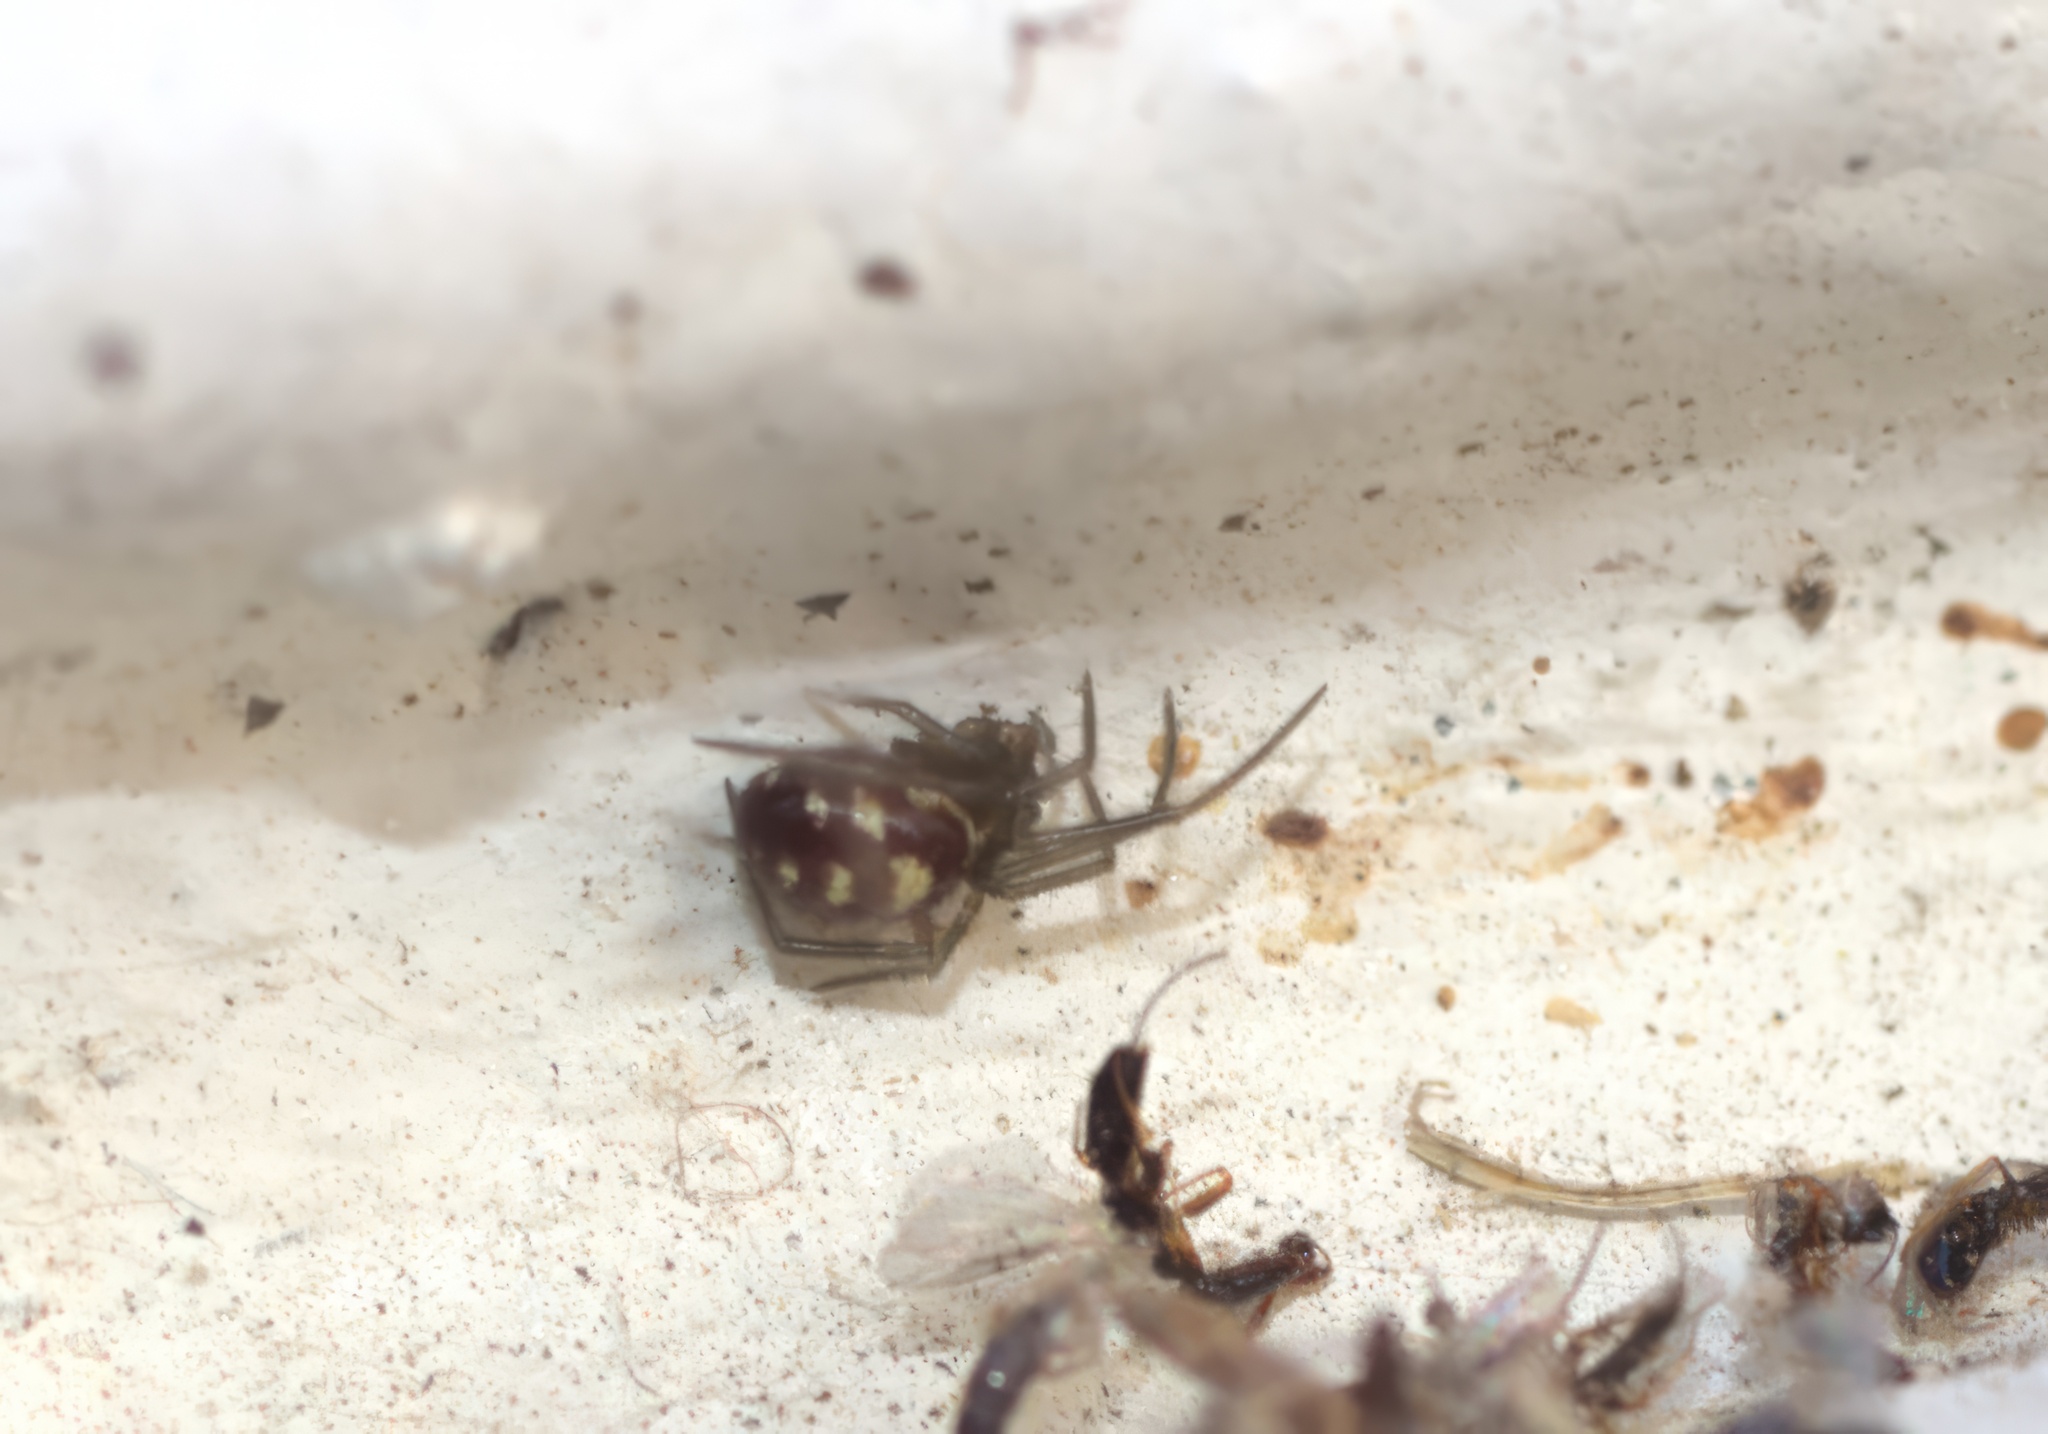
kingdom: Animalia
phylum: Arthropoda
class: Arachnida
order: Araneae
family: Theridiidae
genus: Steatoda
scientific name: Steatoda grossa
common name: False black widow
